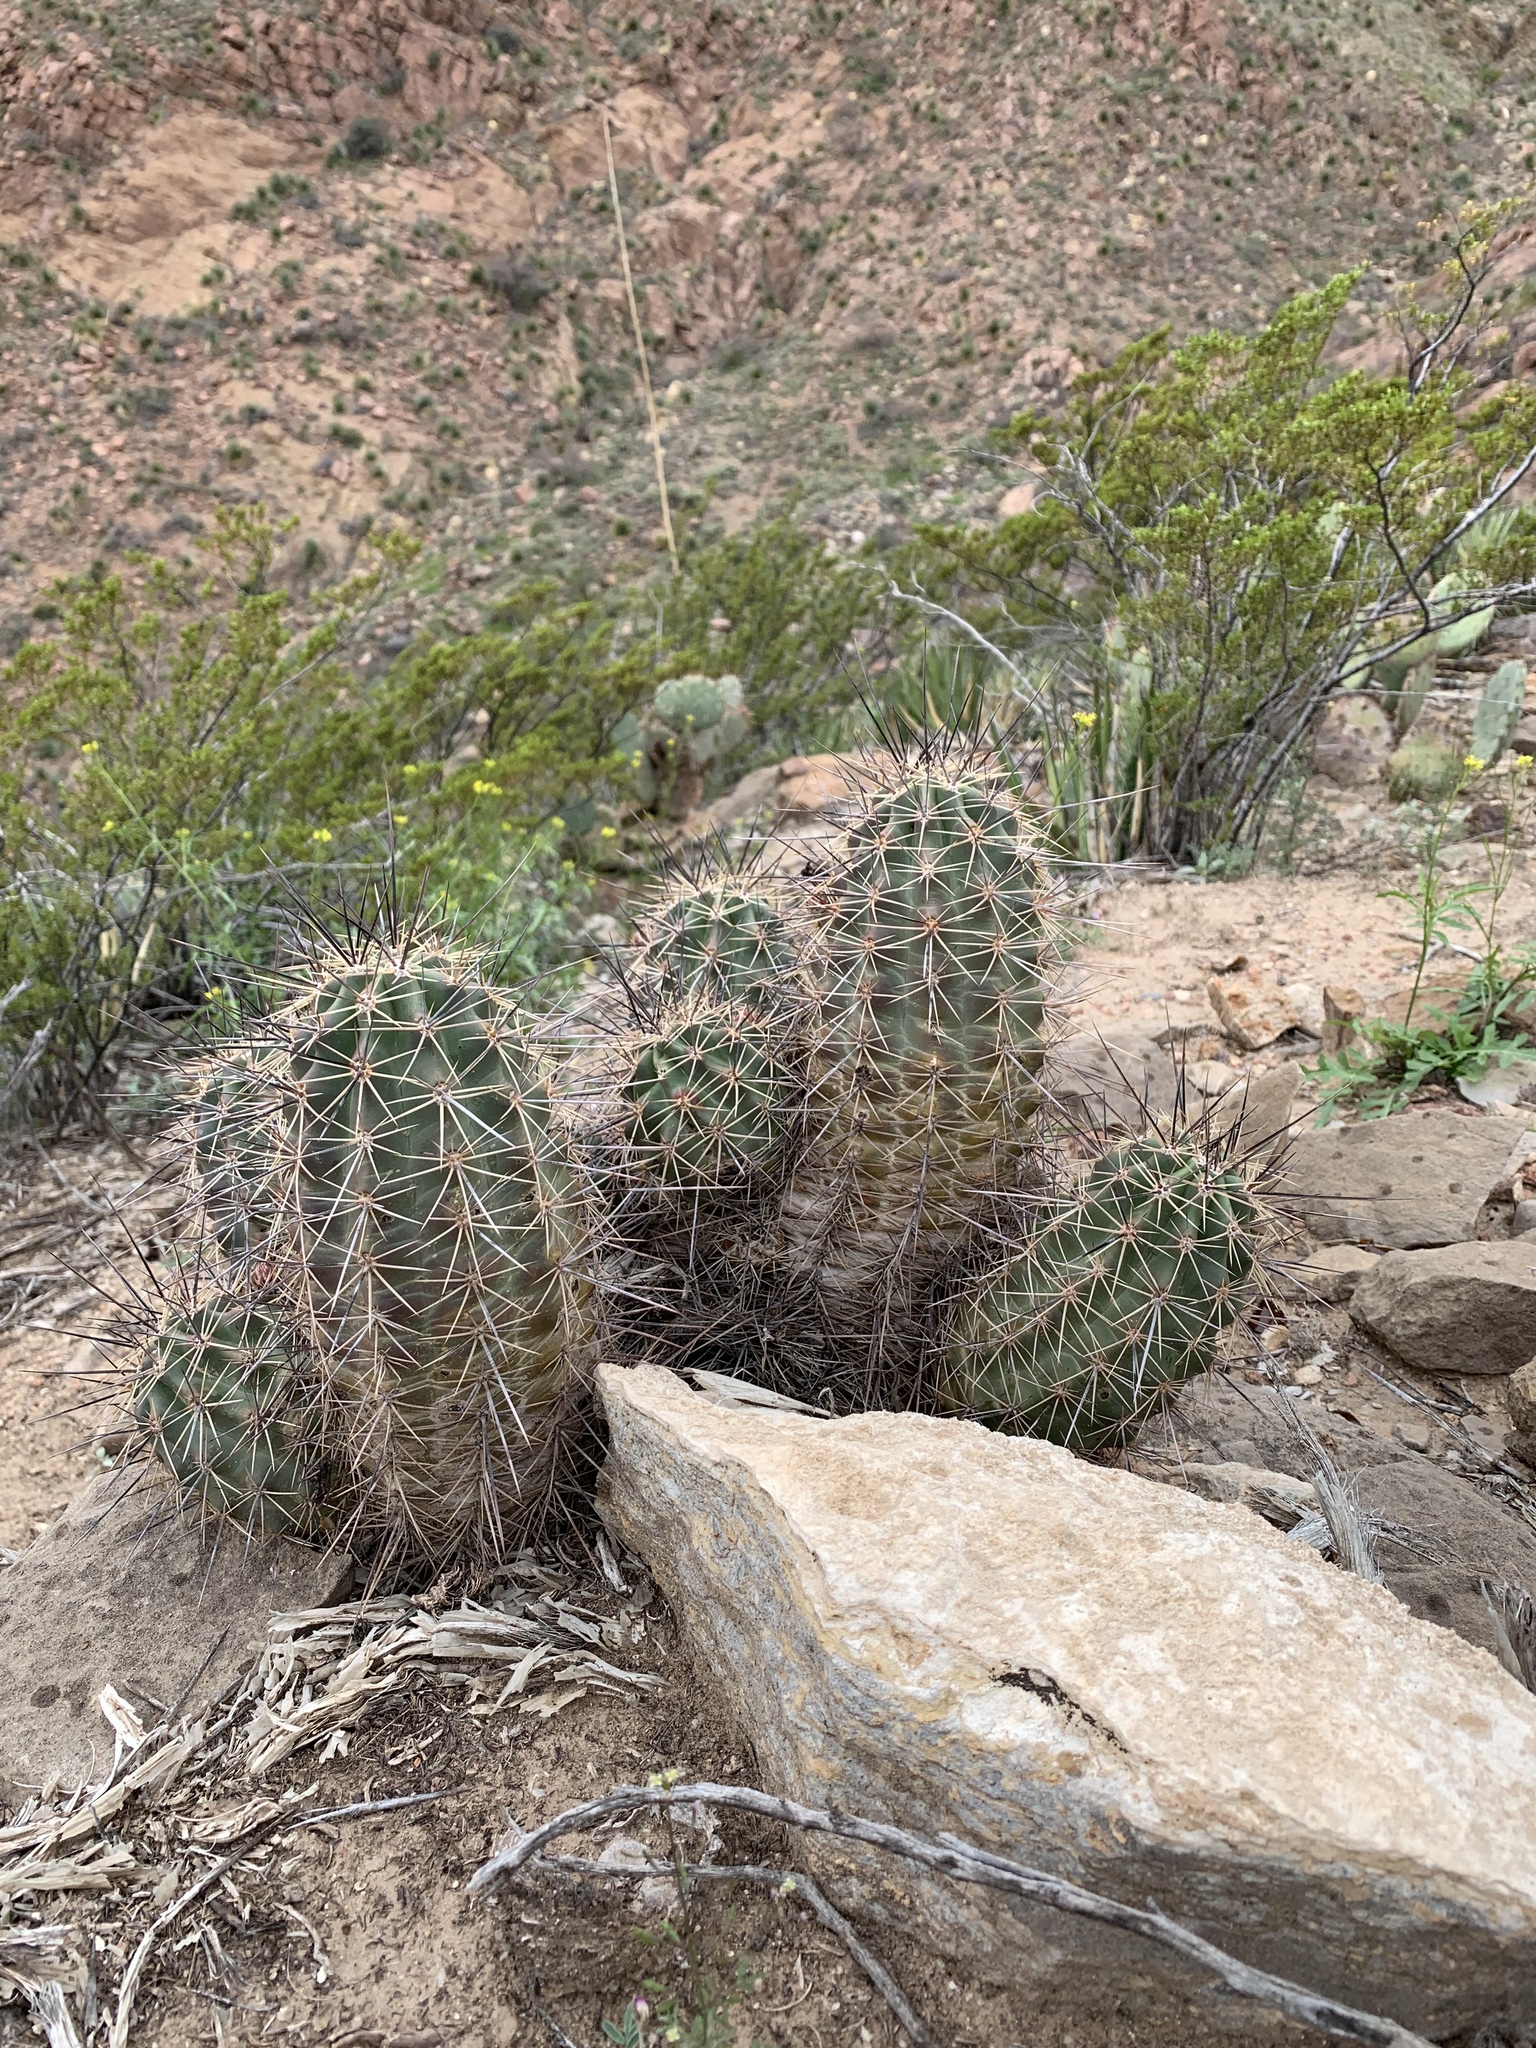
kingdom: Plantae
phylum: Tracheophyta
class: Magnoliopsida
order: Caryophyllales
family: Cactaceae
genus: Echinocereus
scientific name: Echinocereus coccineus
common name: Scarlet hedgehog cactus
